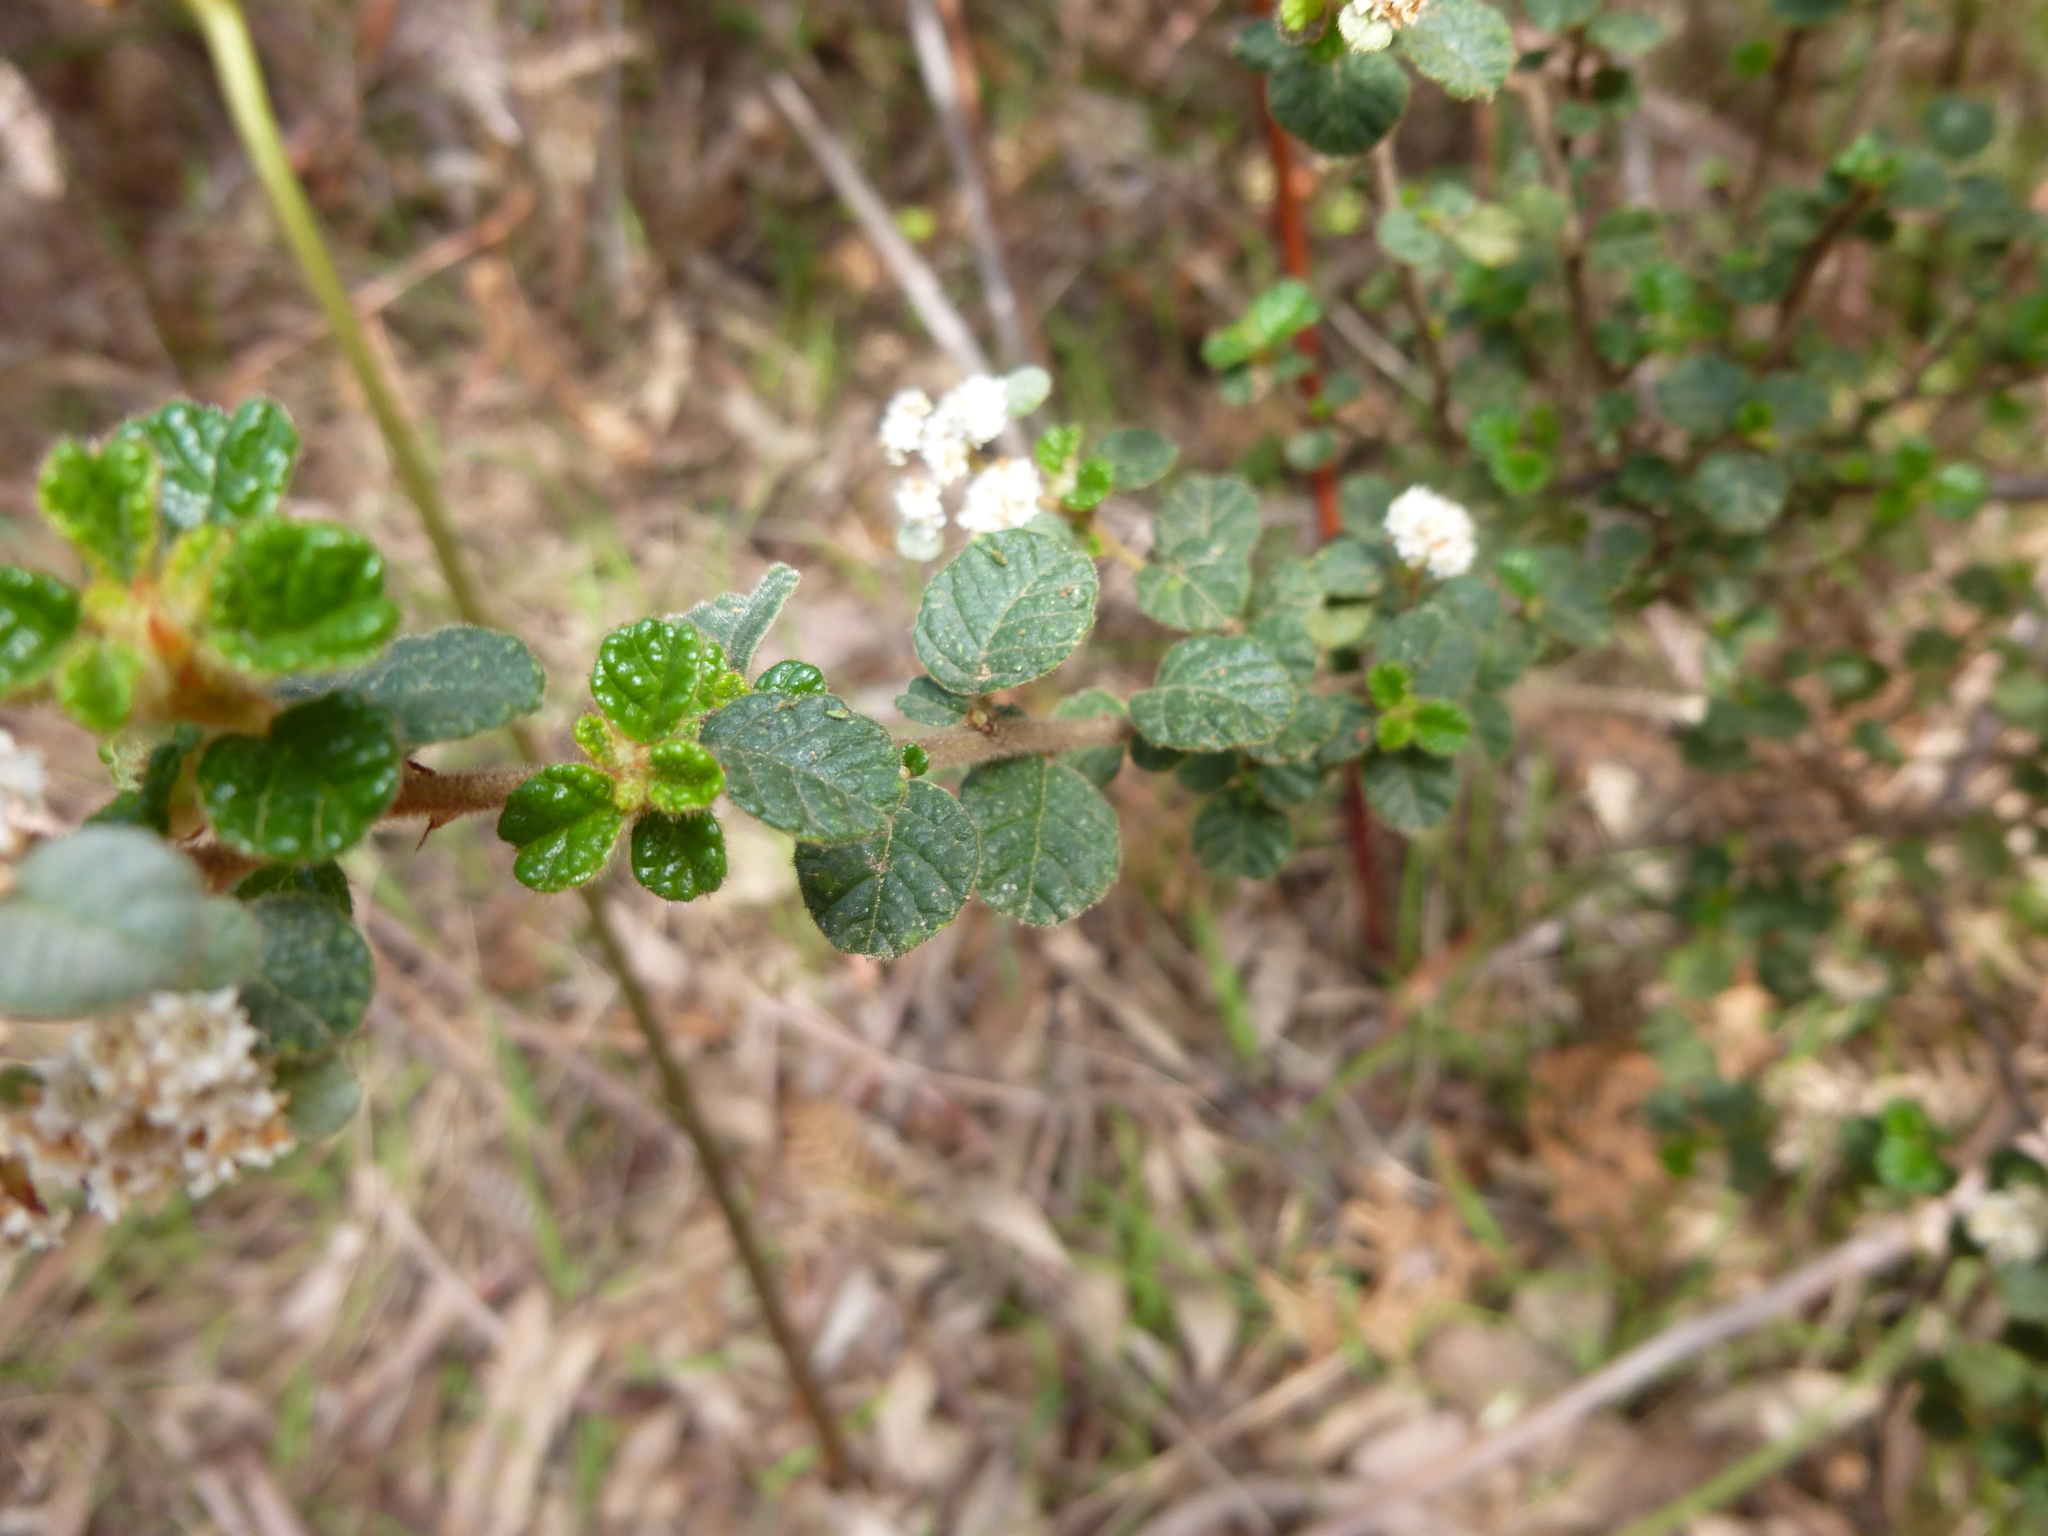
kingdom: Plantae
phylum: Tracheophyta
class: Magnoliopsida
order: Rosales
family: Rhamnaceae
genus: Spyridium
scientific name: Spyridium parvifolium
